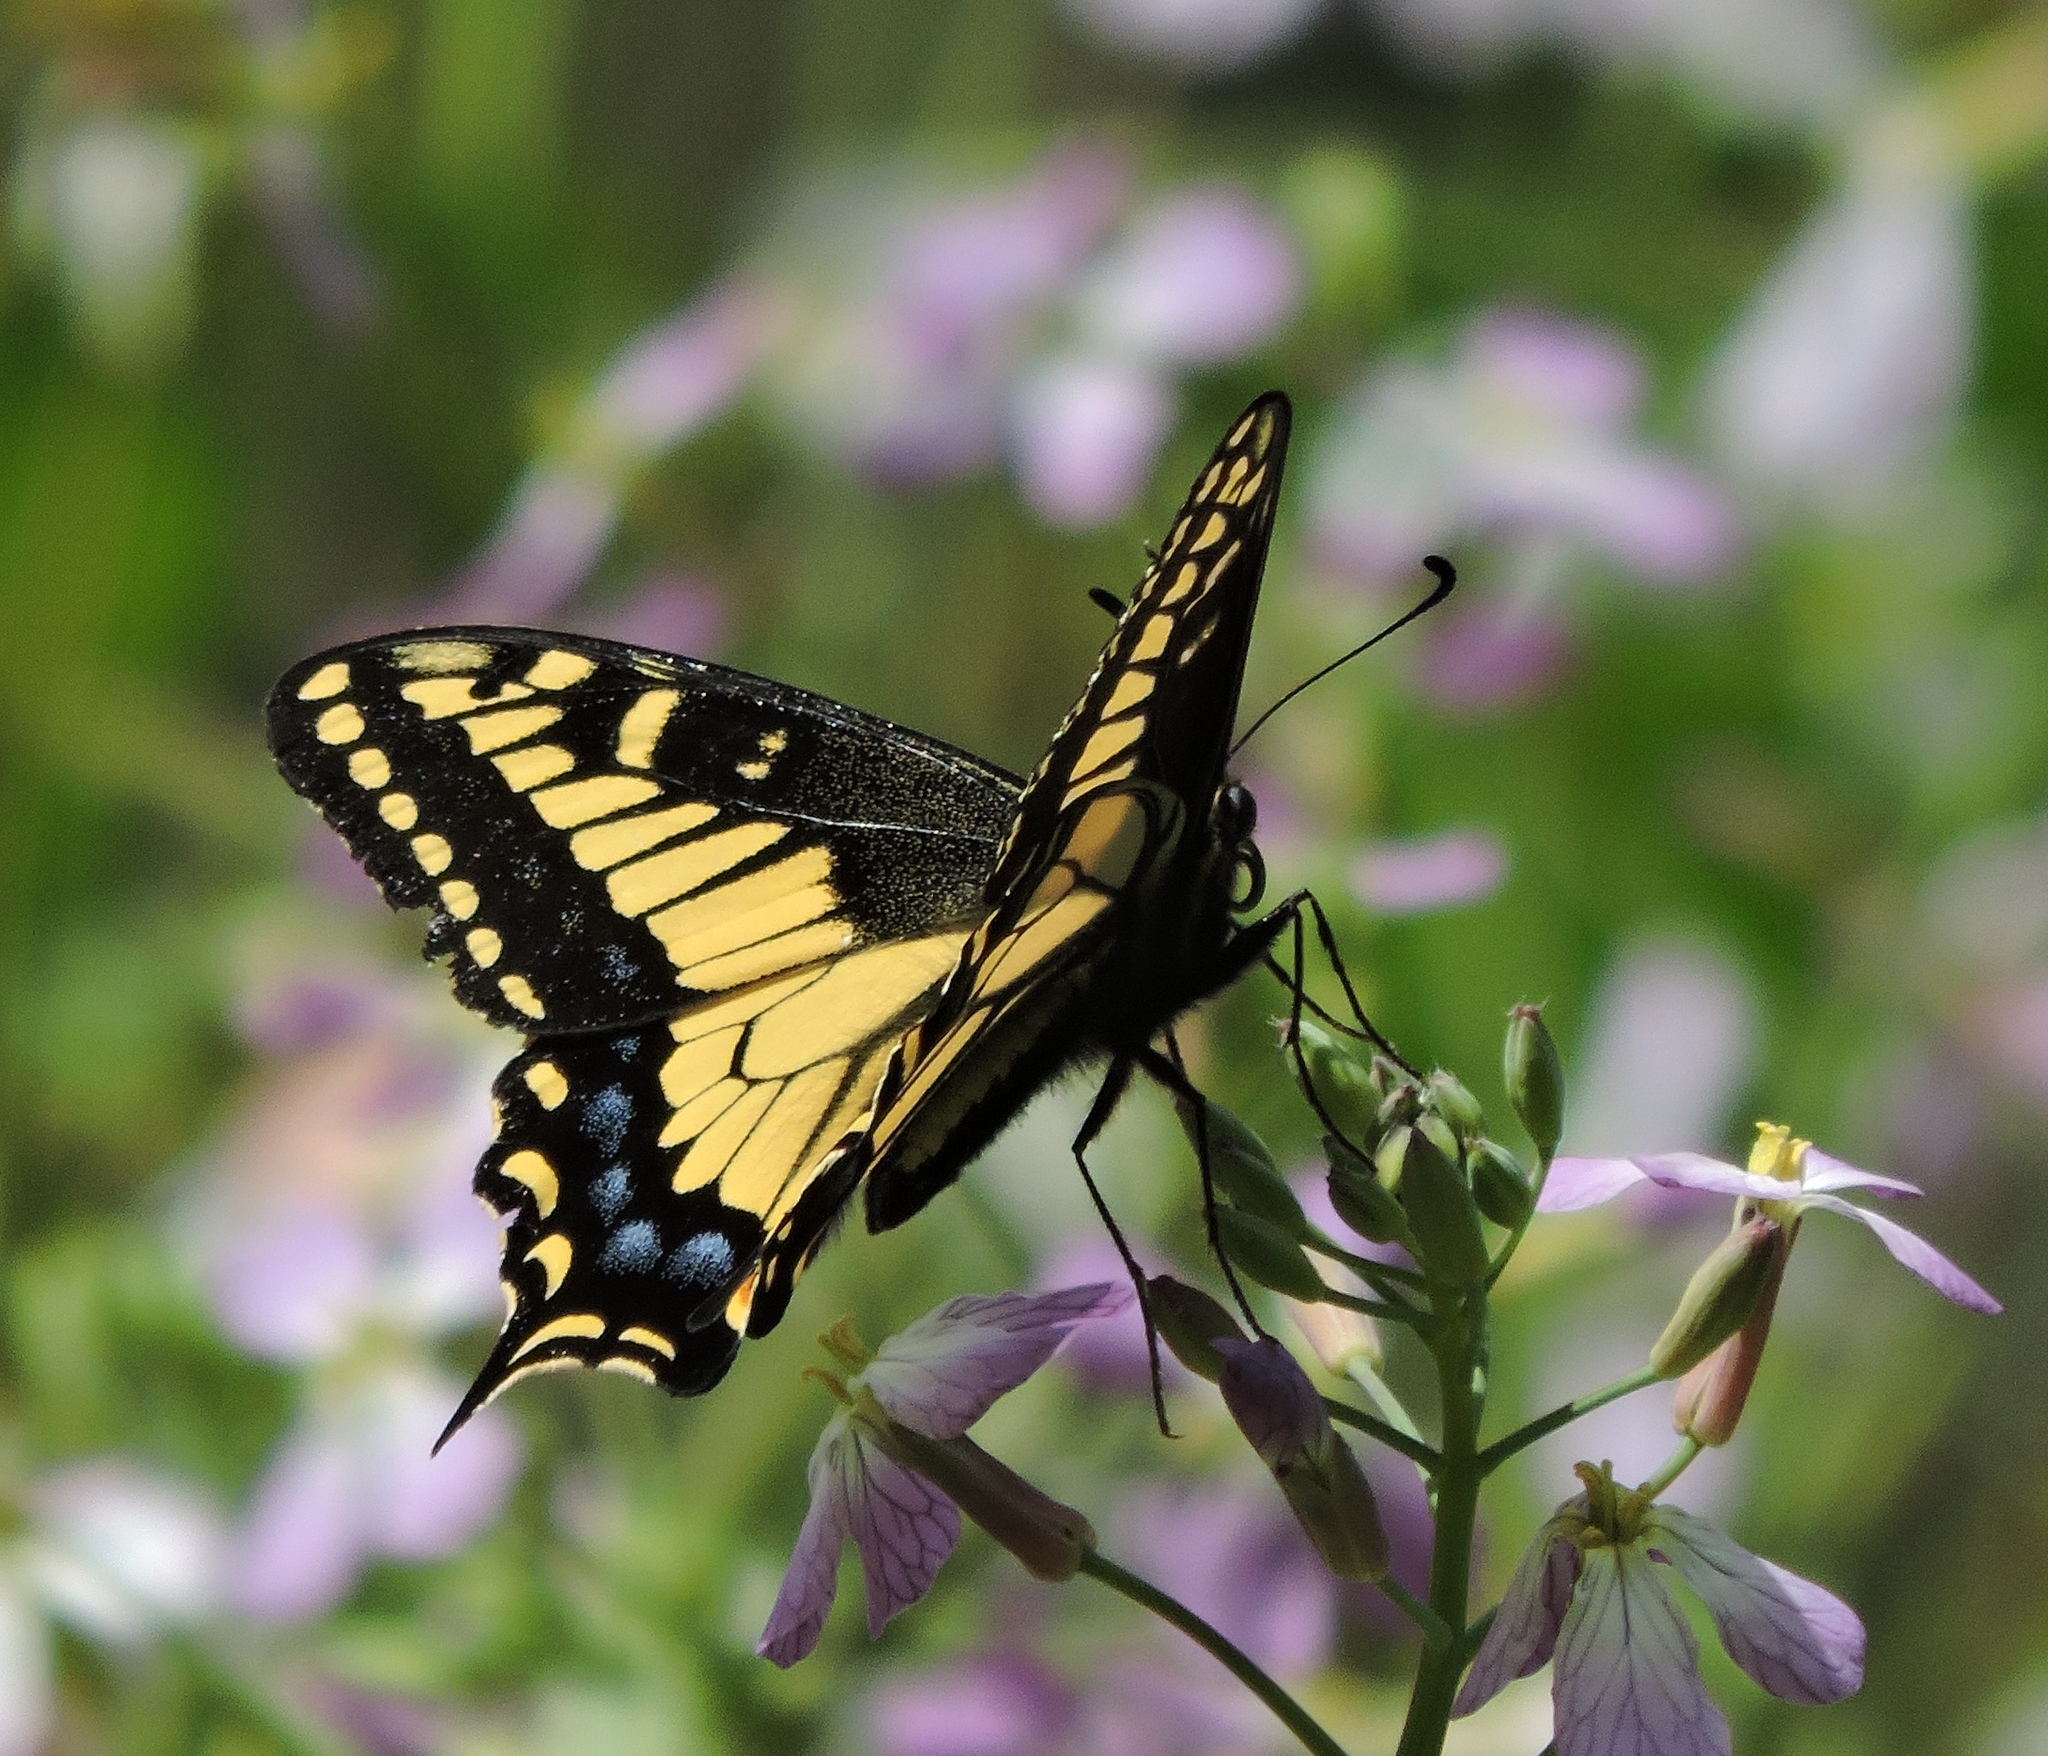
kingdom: Animalia
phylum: Arthropoda
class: Insecta
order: Lepidoptera
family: Papilionidae
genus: Papilio
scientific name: Papilio zelicaon
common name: Anise swallowtail
